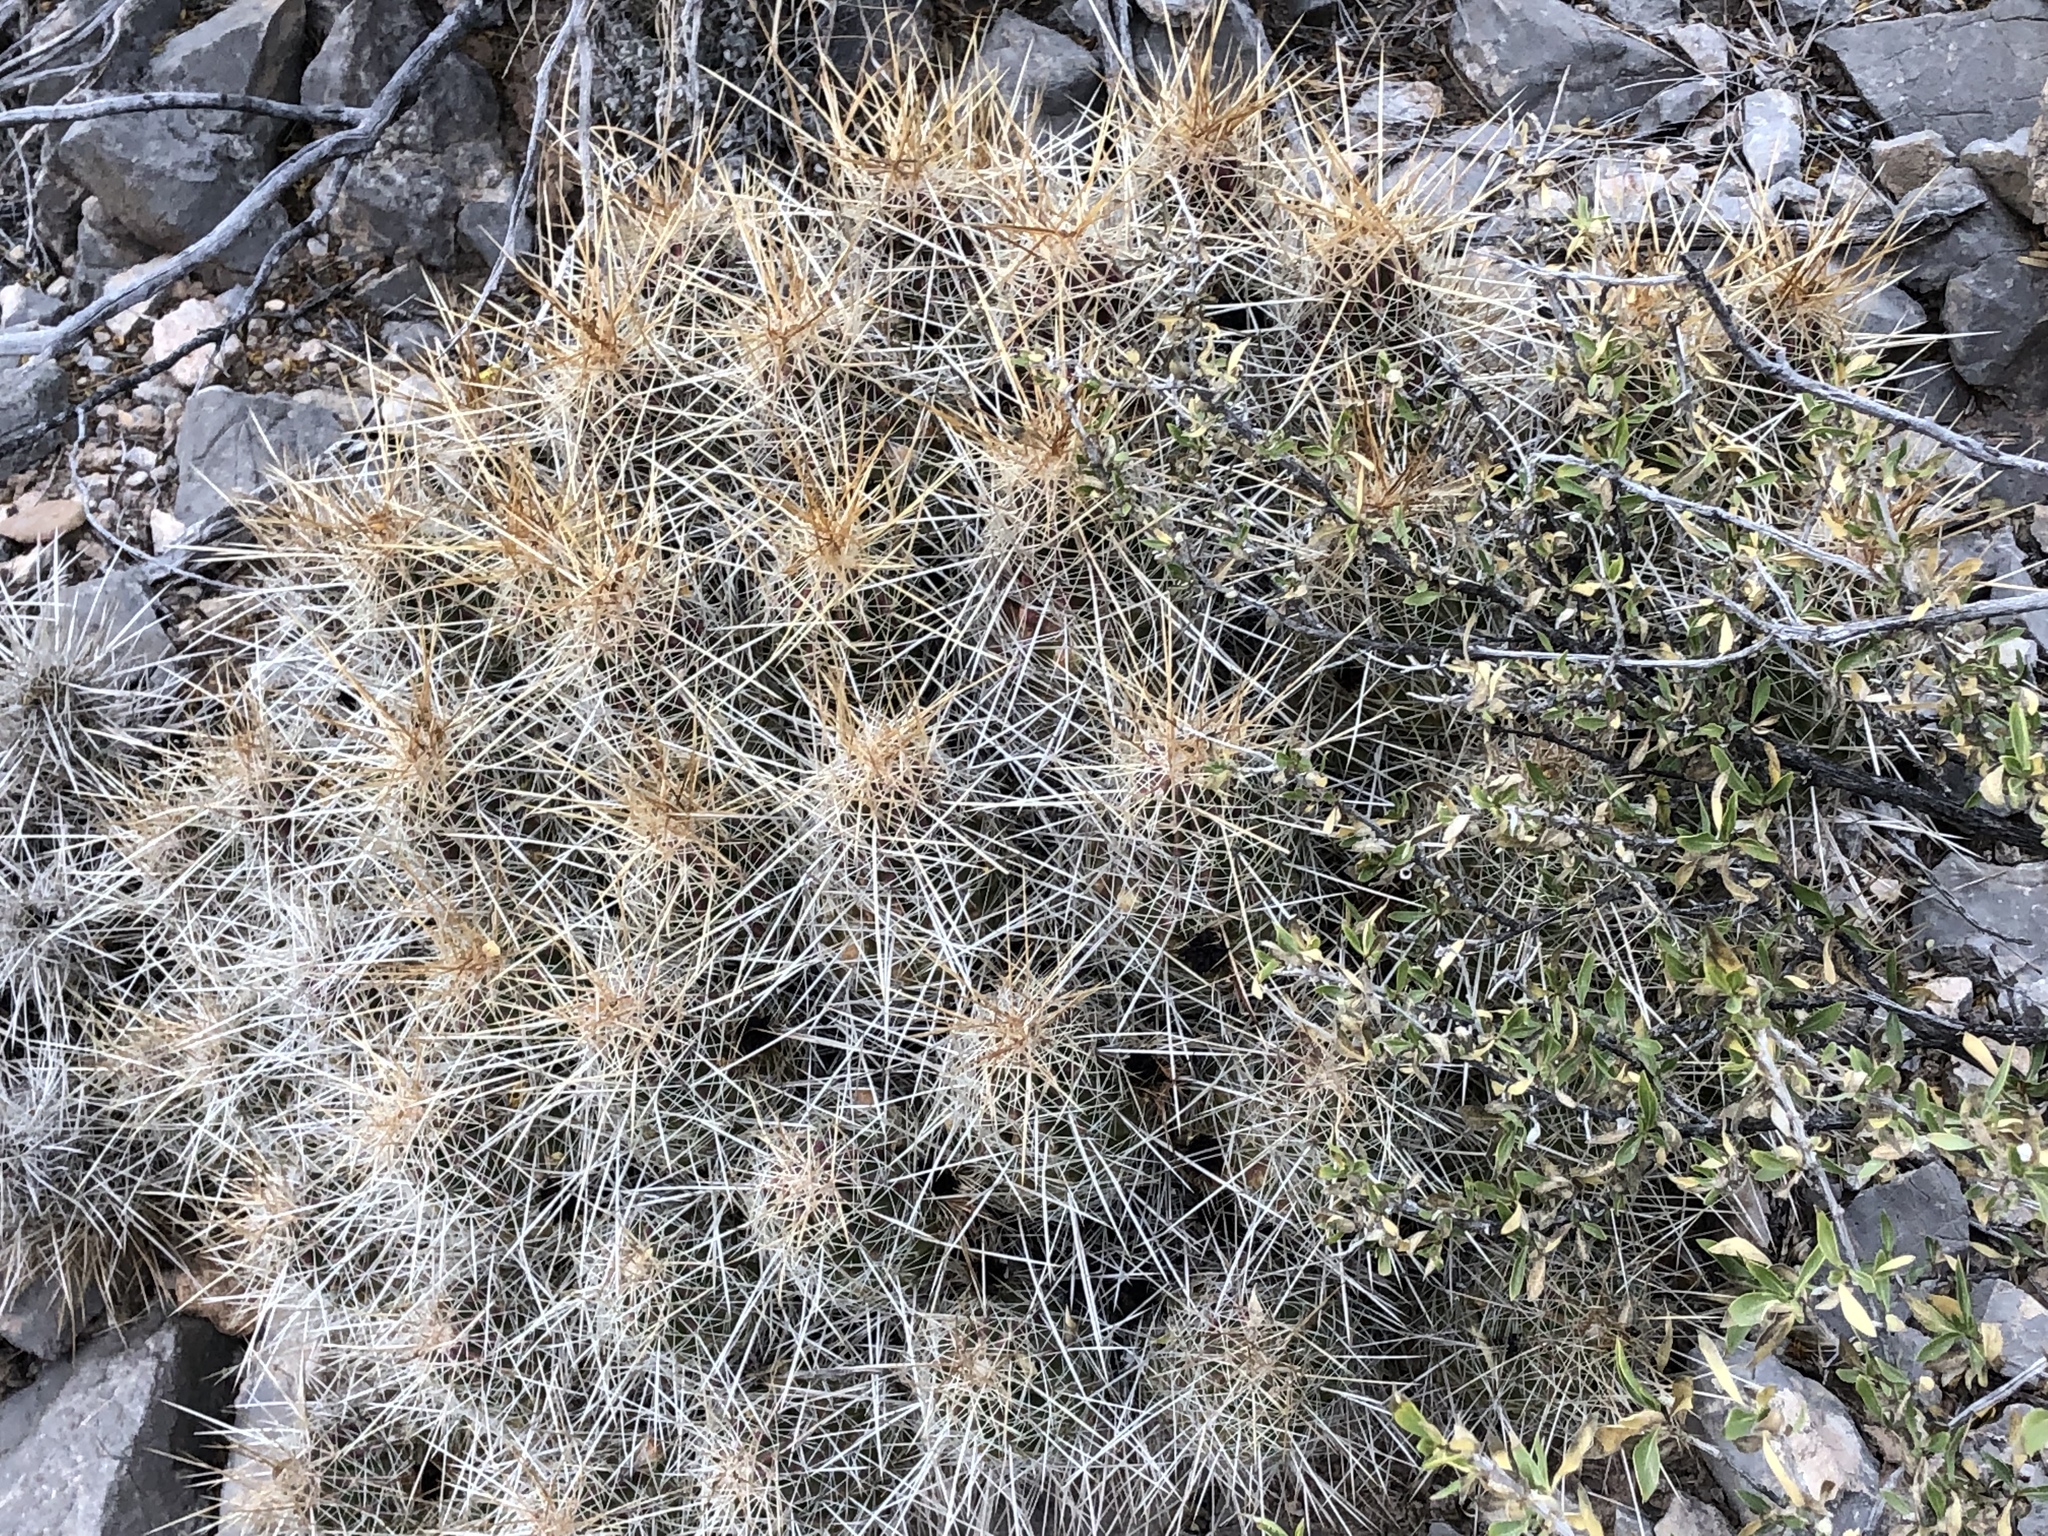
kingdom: Plantae
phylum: Tracheophyta
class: Magnoliopsida
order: Caryophyllales
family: Cactaceae
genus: Echinocereus
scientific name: Echinocereus stramineus
